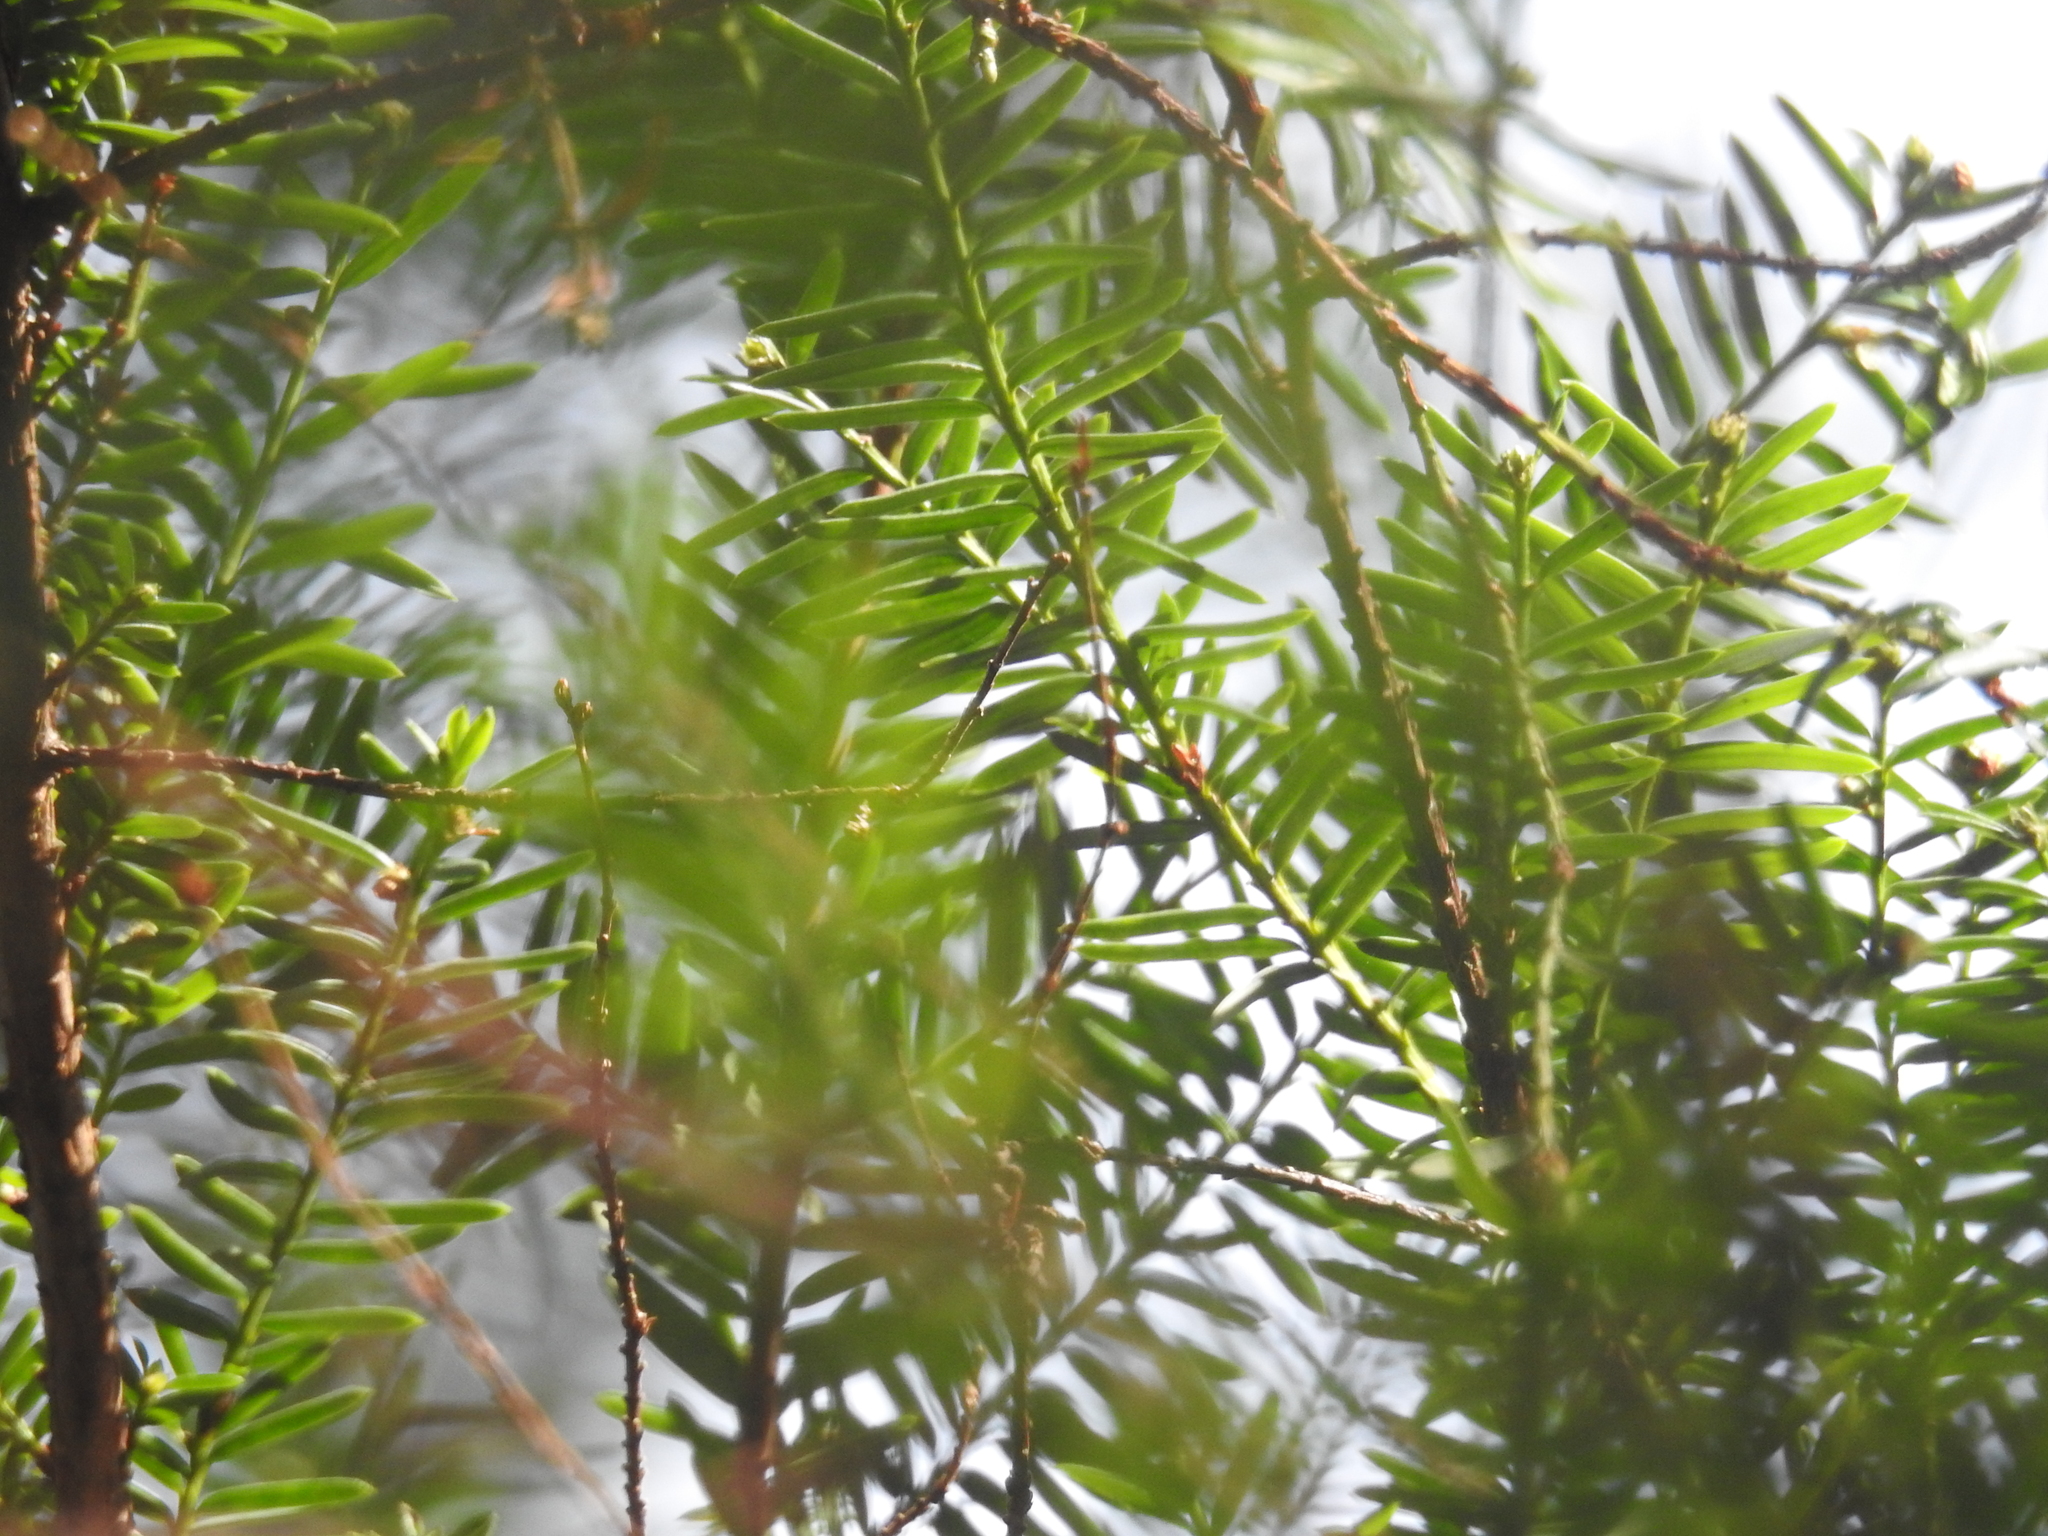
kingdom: Plantae
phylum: Tracheophyta
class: Pinopsida
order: Pinales
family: Taxaceae
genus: Taxus
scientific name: Taxus brevifolia
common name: Pacific yew
